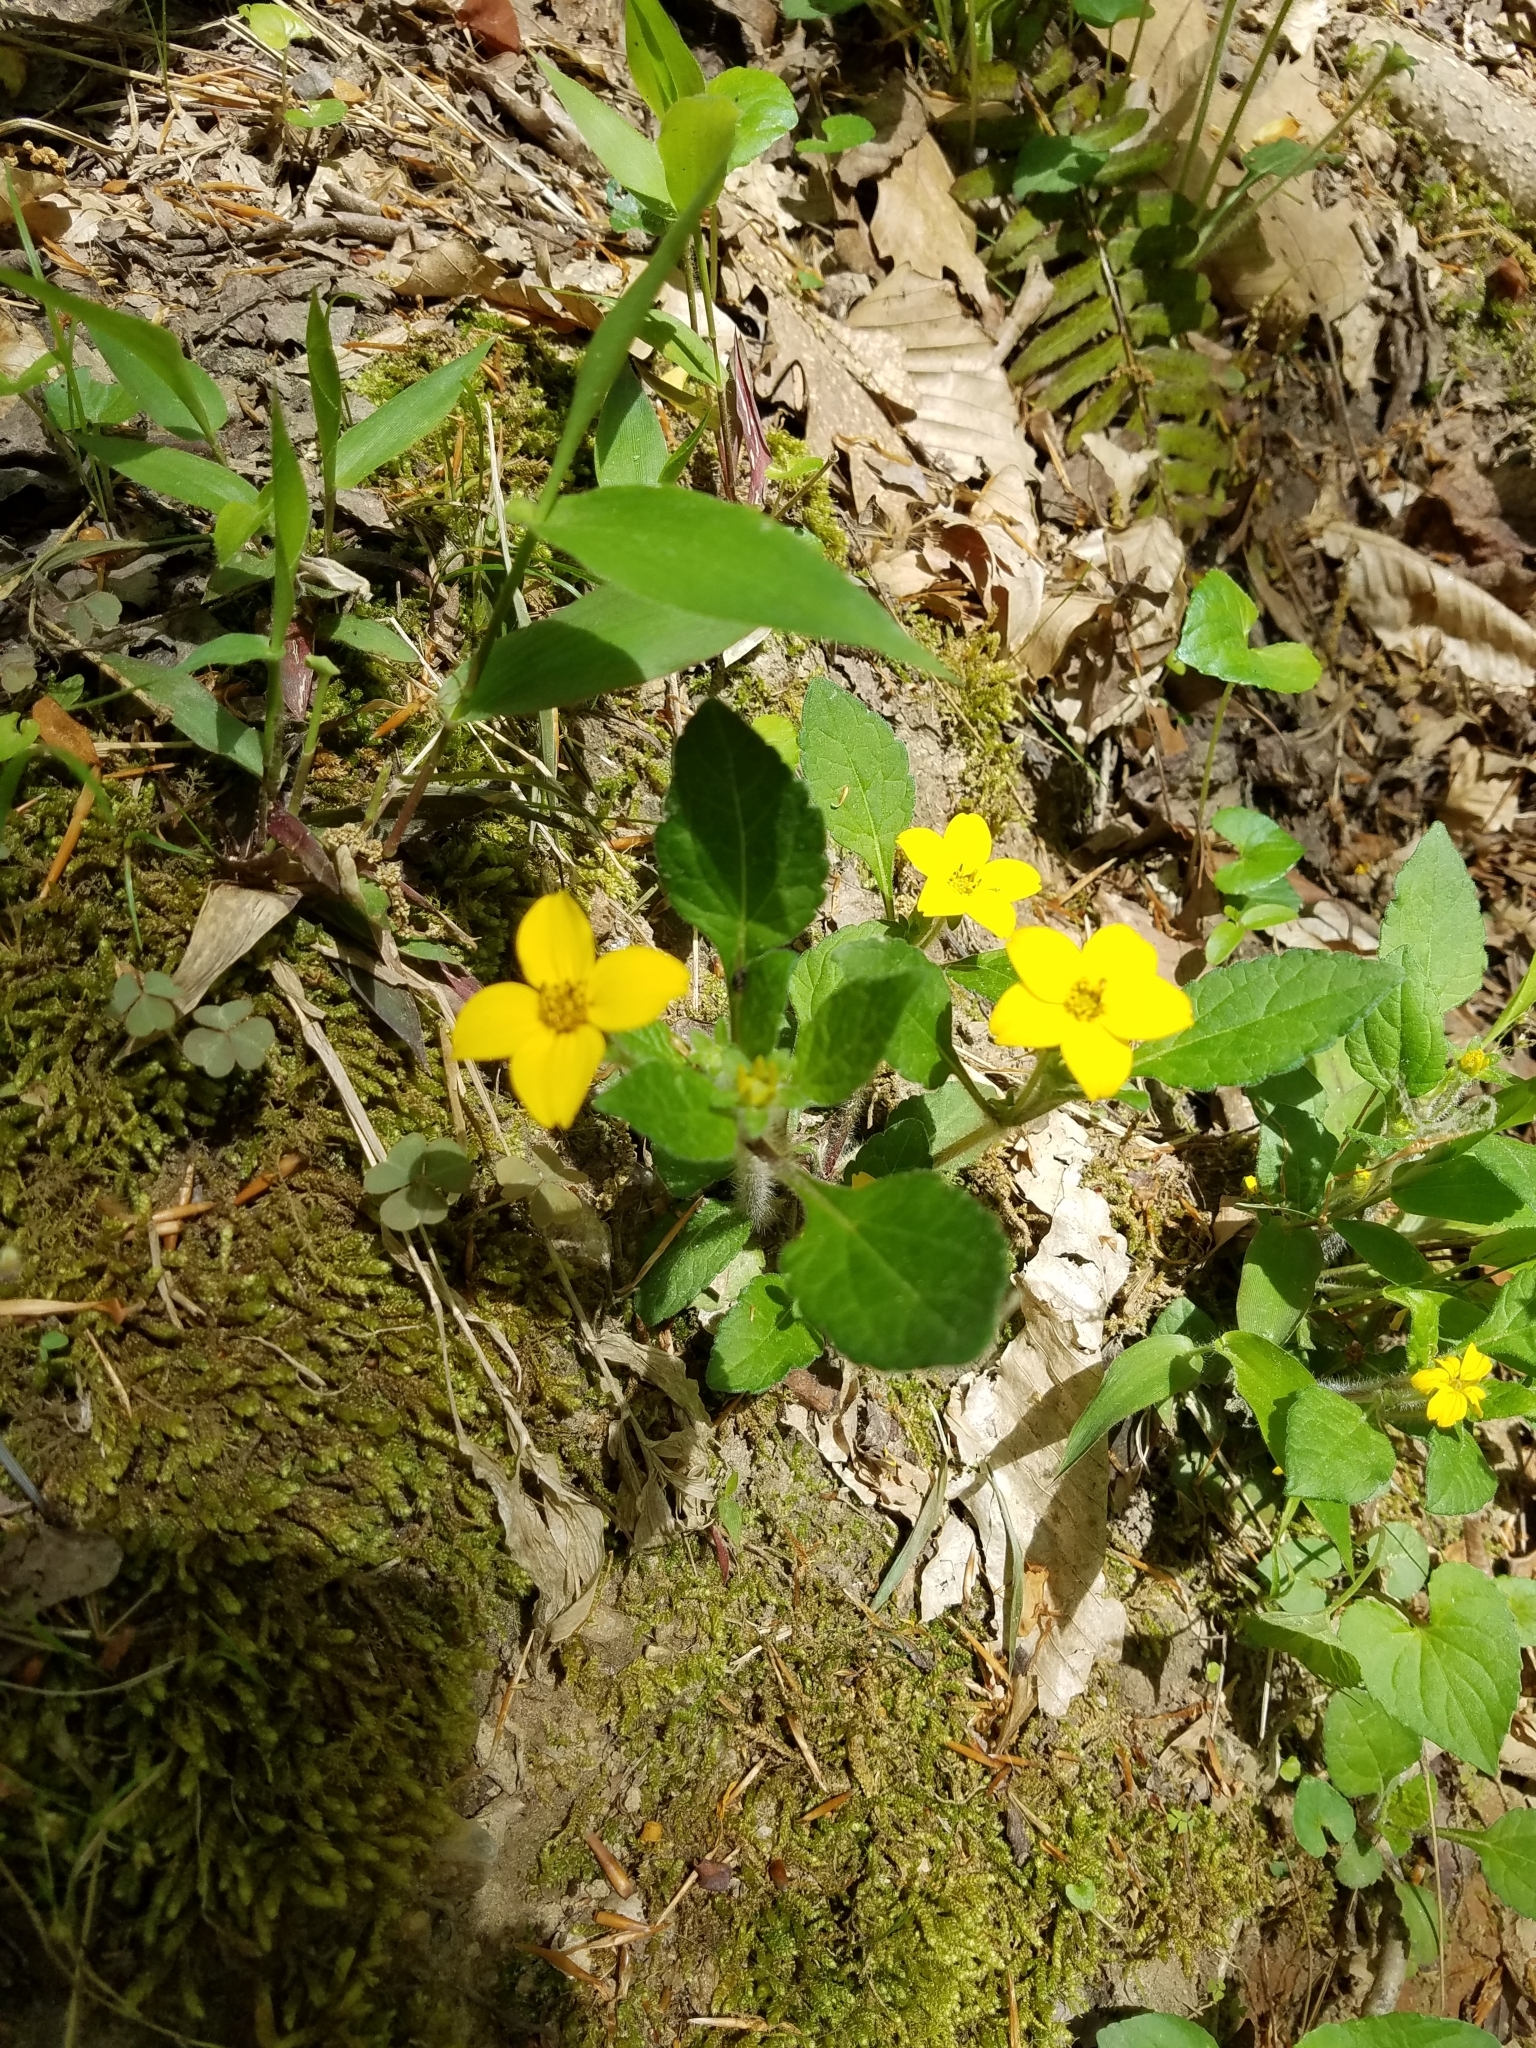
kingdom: Plantae
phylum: Tracheophyta
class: Magnoliopsida
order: Asterales
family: Asteraceae
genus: Chrysogonum
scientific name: Chrysogonum virginianum
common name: Golden-knee
